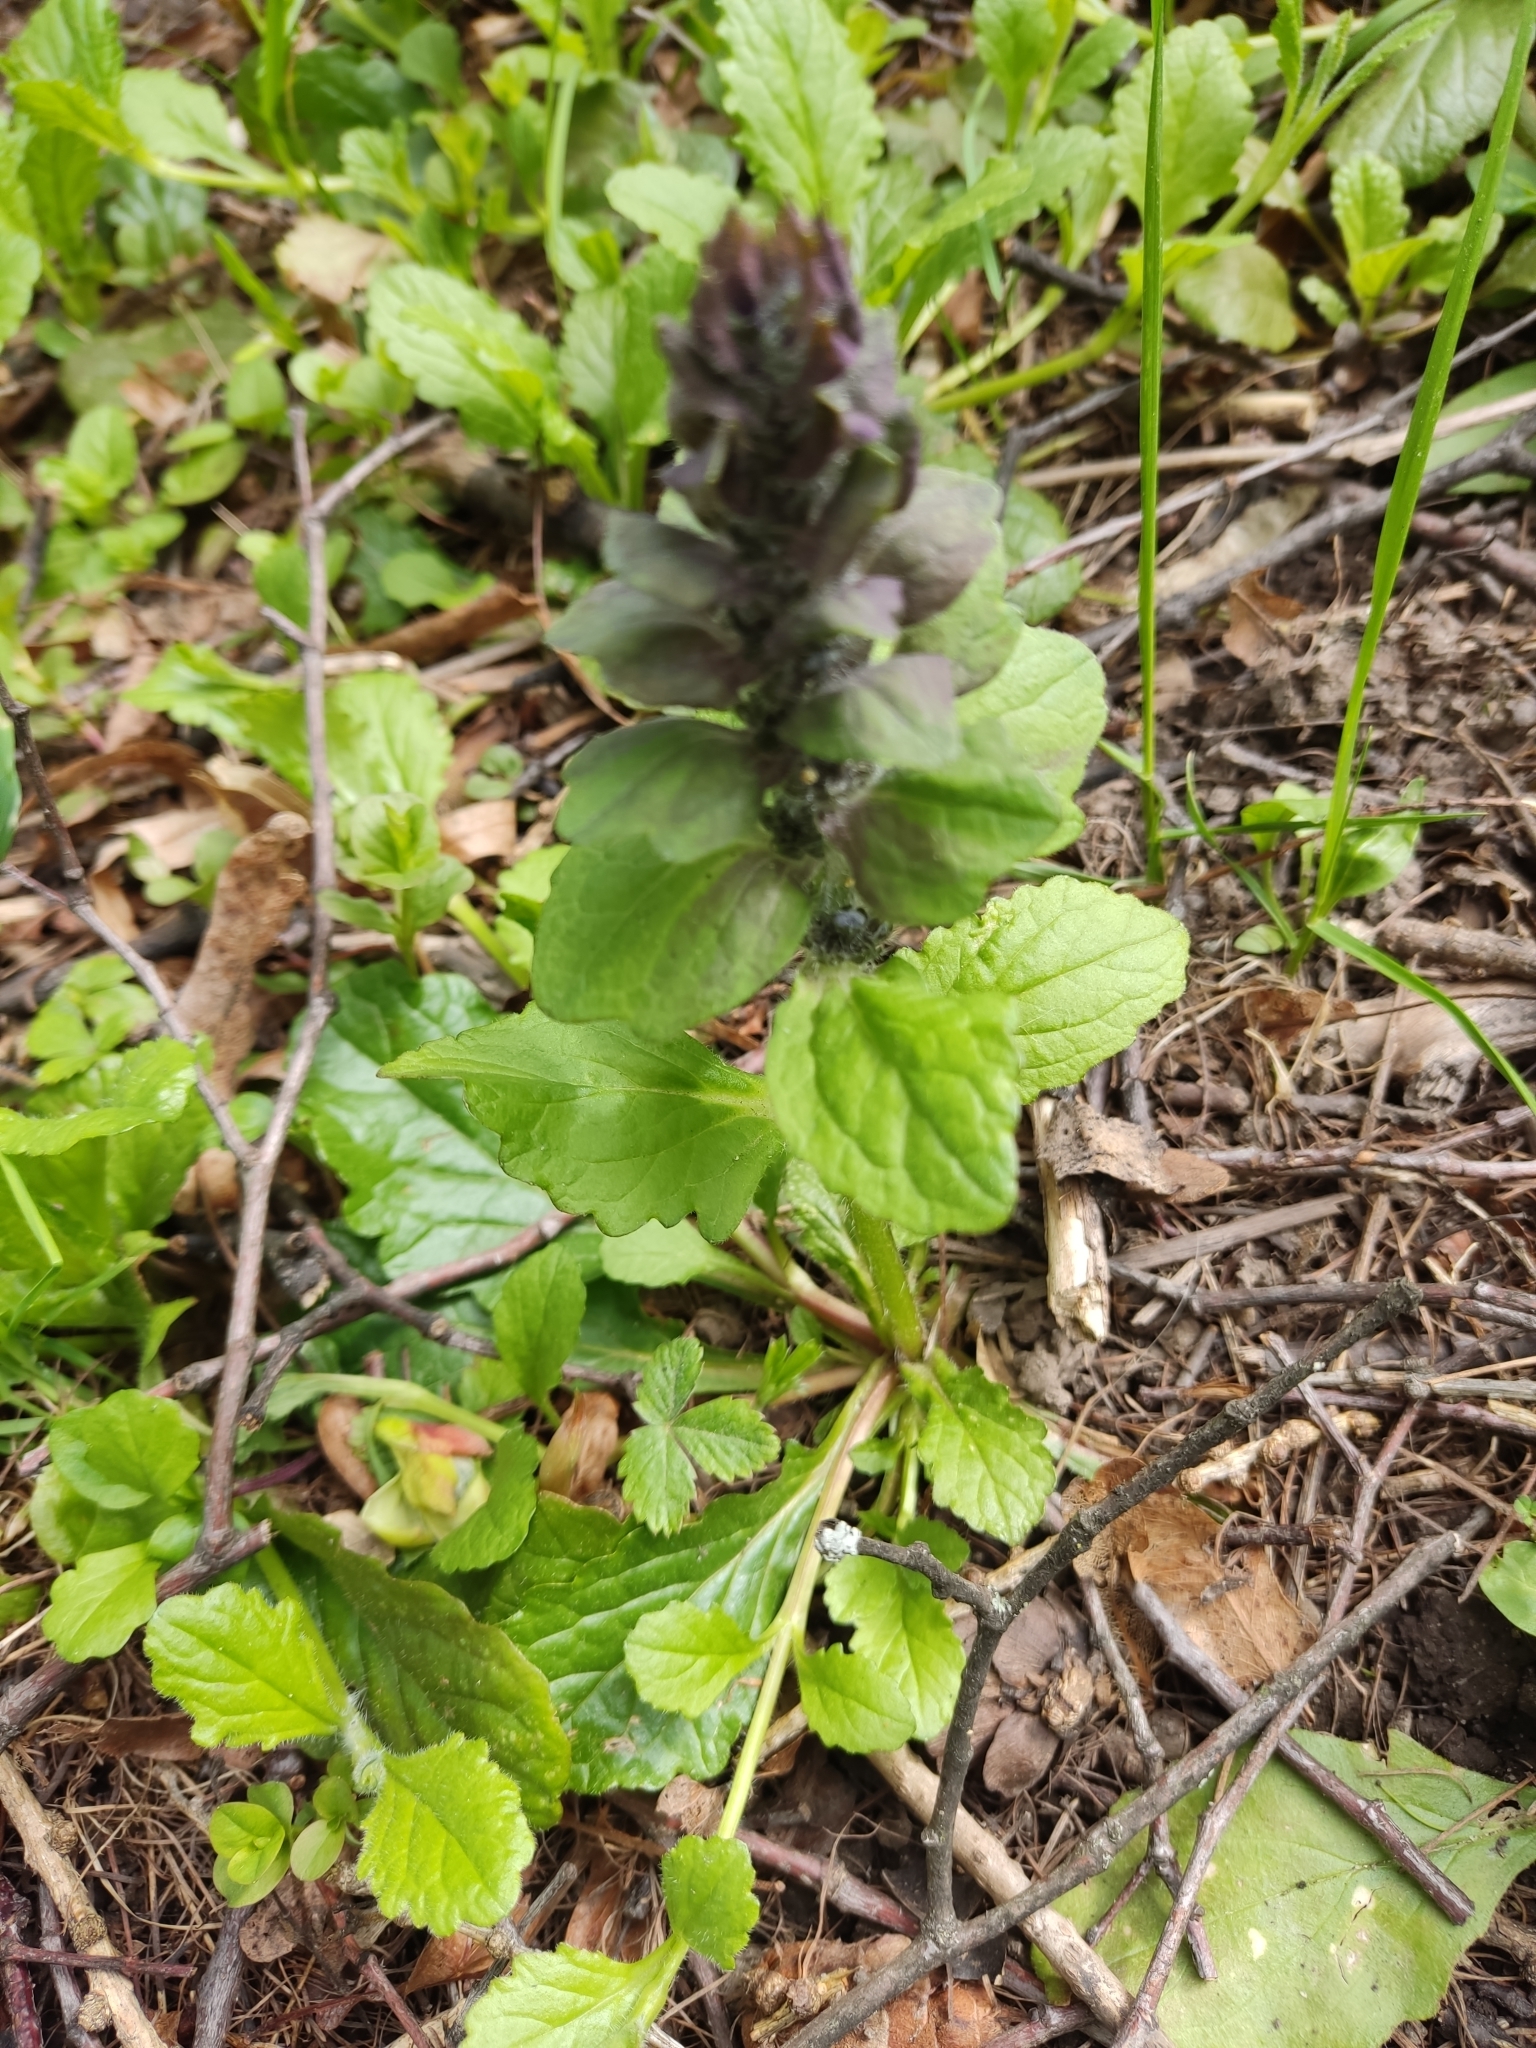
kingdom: Plantae
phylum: Tracheophyta
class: Magnoliopsida
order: Lamiales
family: Lamiaceae
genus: Ajuga
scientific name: Ajuga reptans
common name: Bugle
